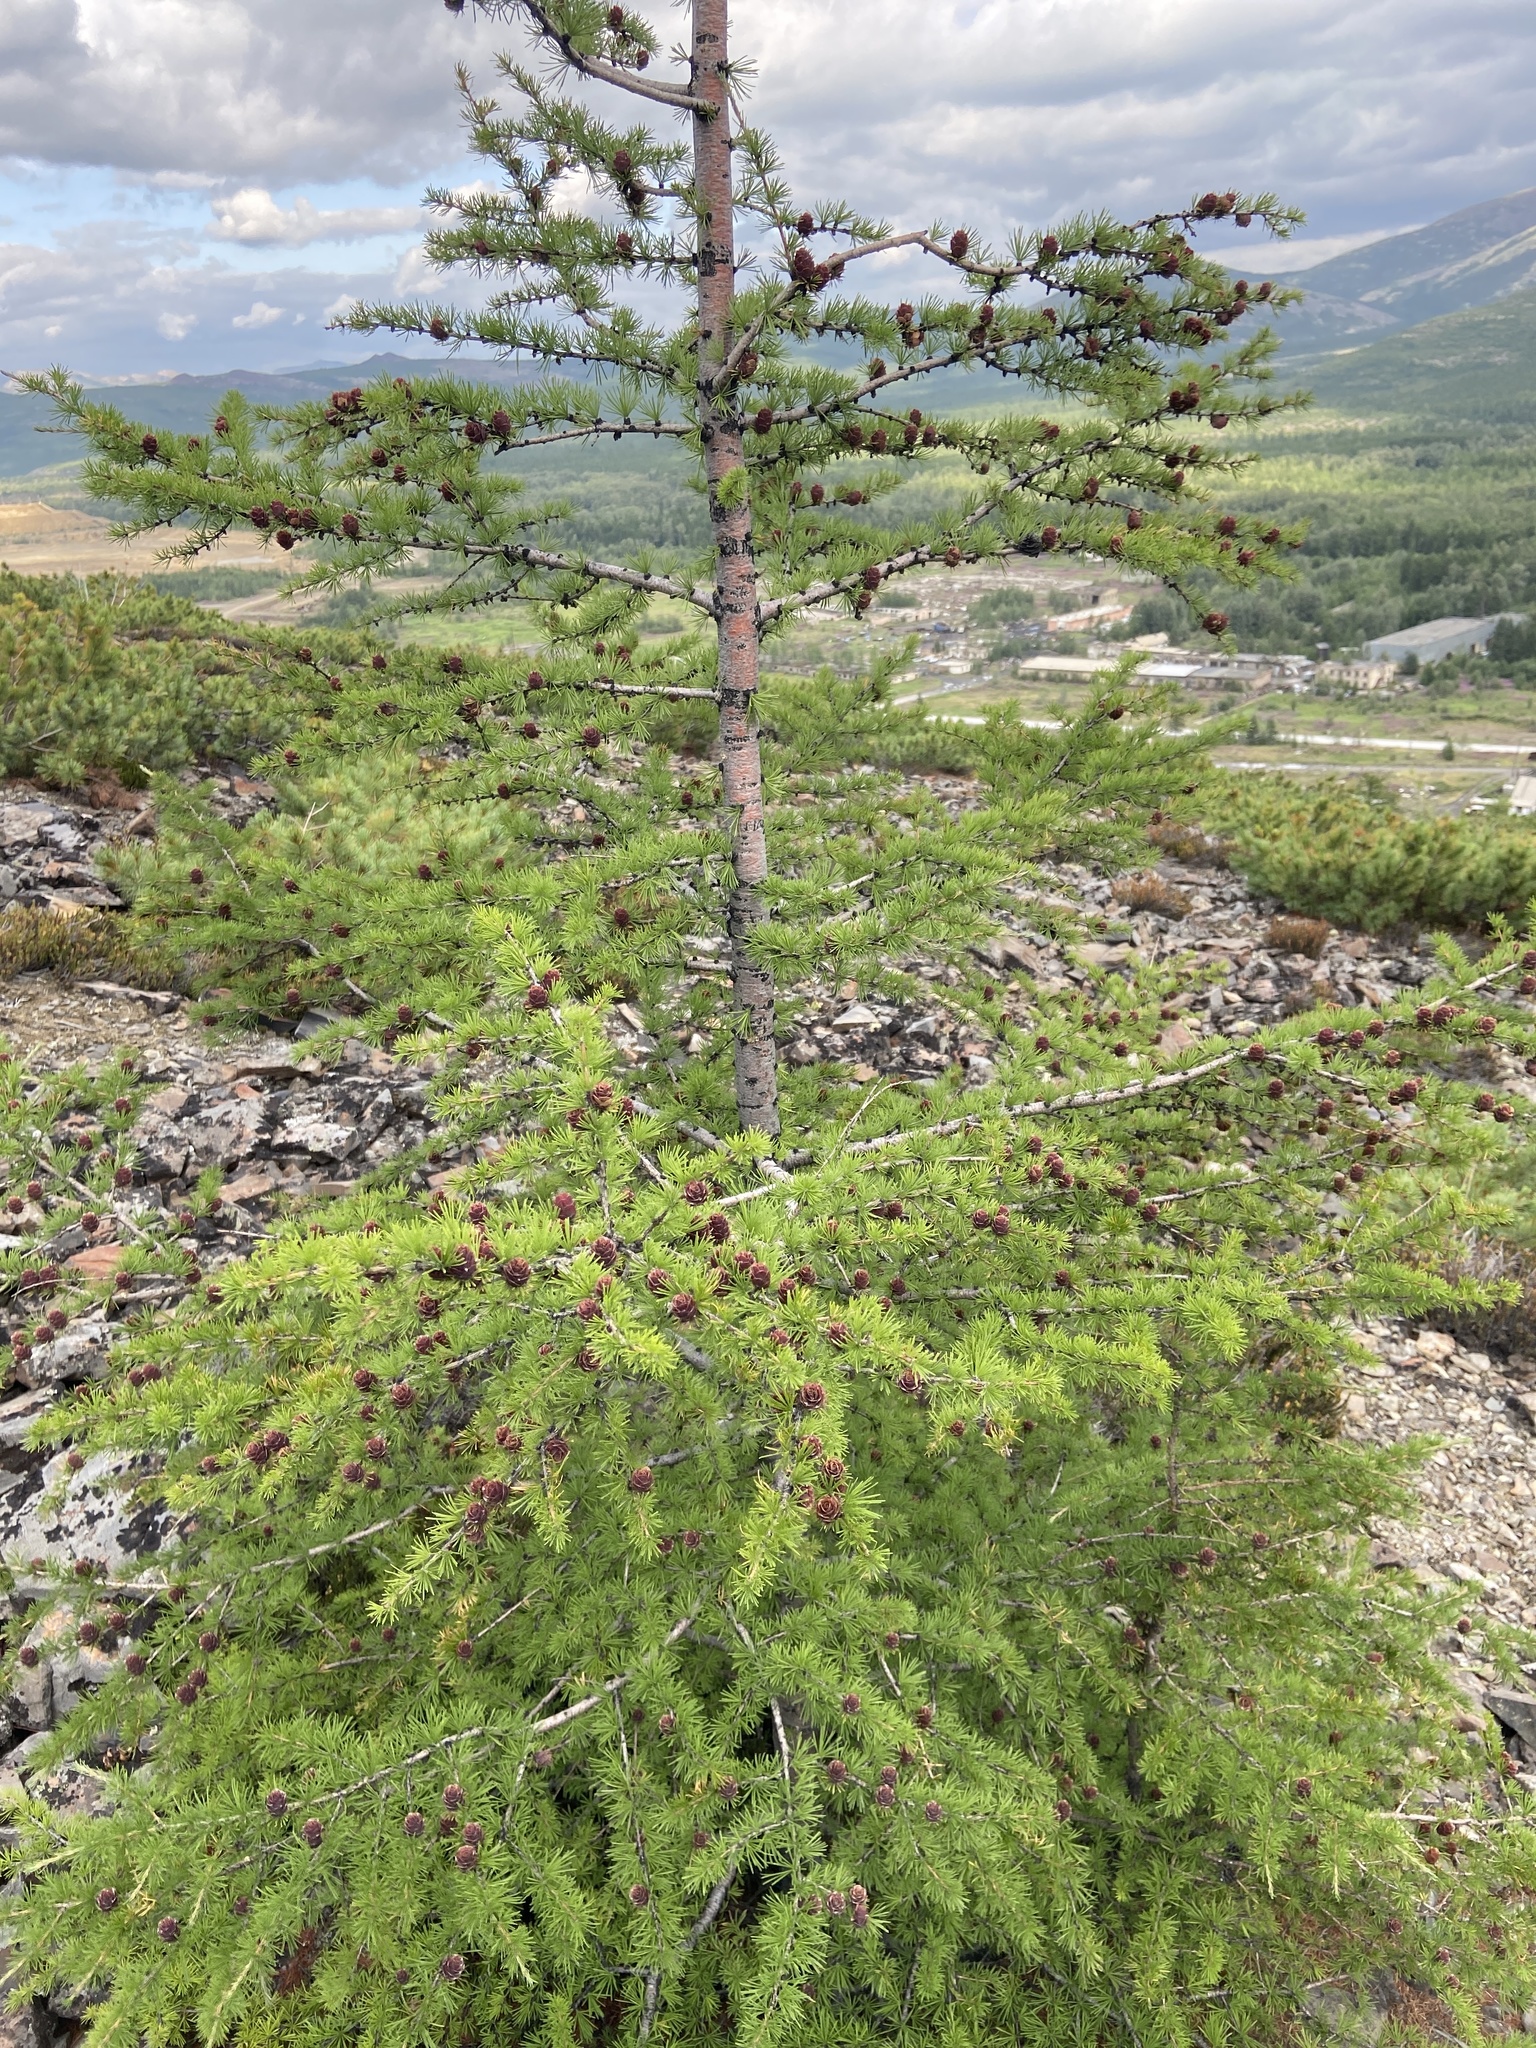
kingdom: Plantae
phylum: Tracheophyta
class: Pinopsida
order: Pinales
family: Pinaceae
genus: Larix
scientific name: Larix gmelinii
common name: Dahurian larch
